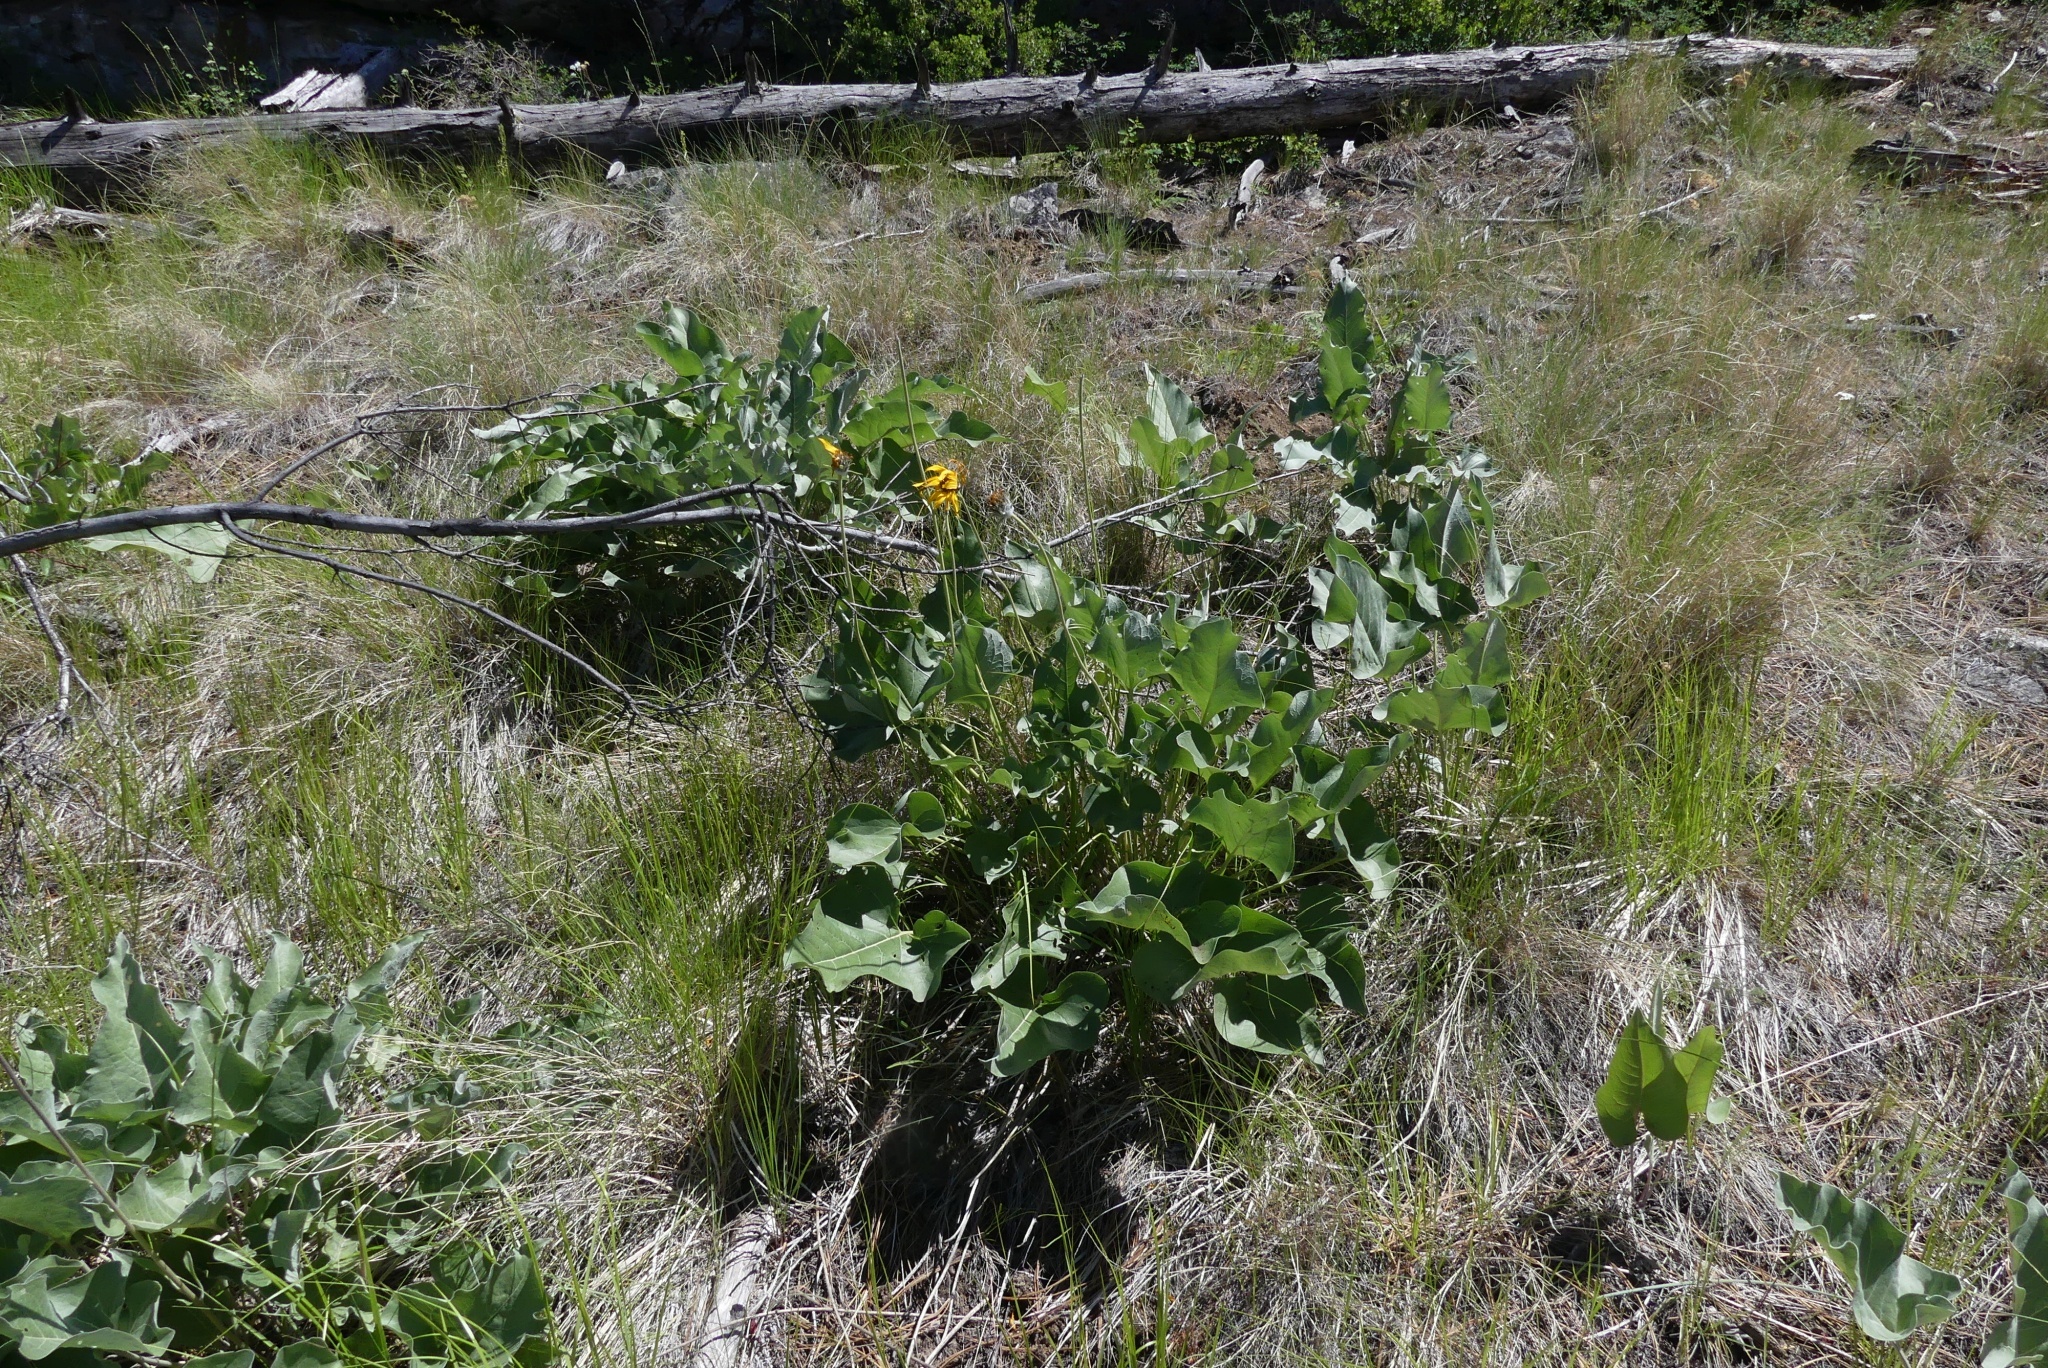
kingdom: Plantae
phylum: Tracheophyta
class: Magnoliopsida
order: Asterales
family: Asteraceae
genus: Wyethia
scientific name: Wyethia sagittata
